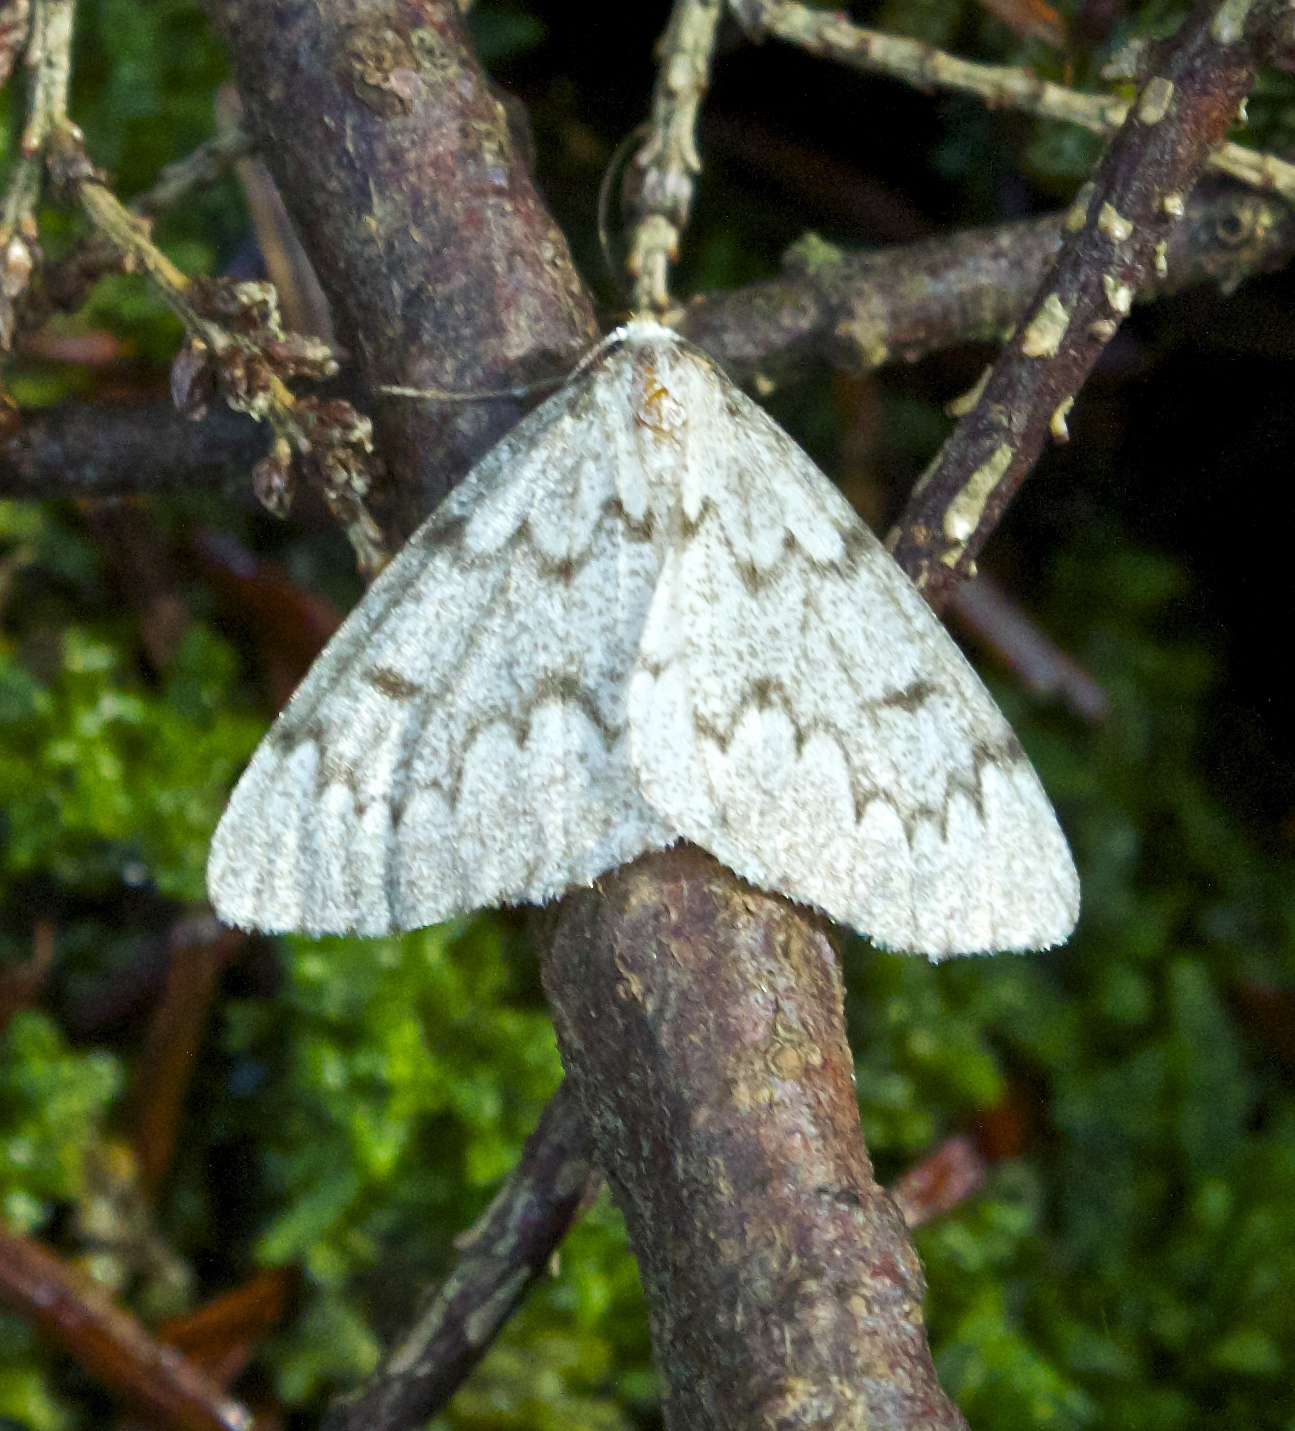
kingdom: Animalia
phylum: Arthropoda
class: Insecta
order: Lepidoptera
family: Geometridae
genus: Nepytia
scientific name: Nepytia canosaria
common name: False hemlock looper
